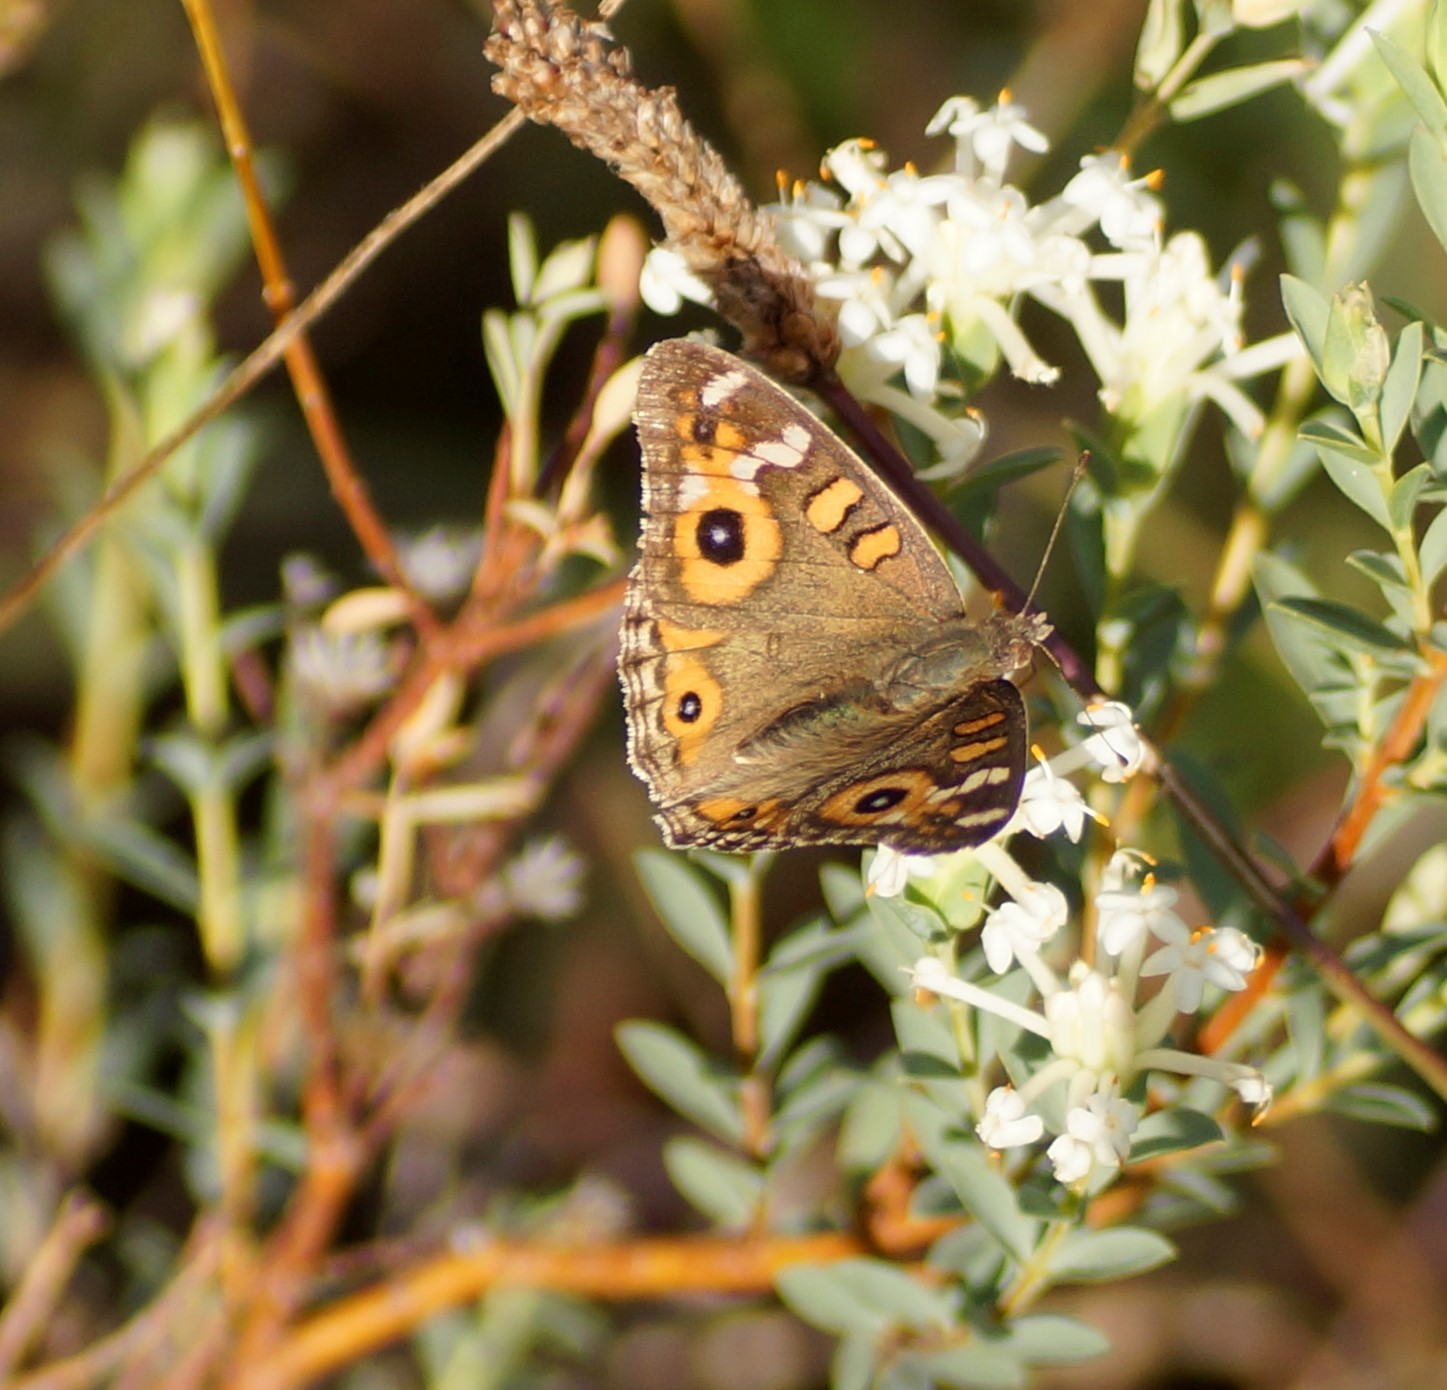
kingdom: Animalia
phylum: Arthropoda
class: Insecta
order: Lepidoptera
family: Nymphalidae
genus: Junonia
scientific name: Junonia villida
